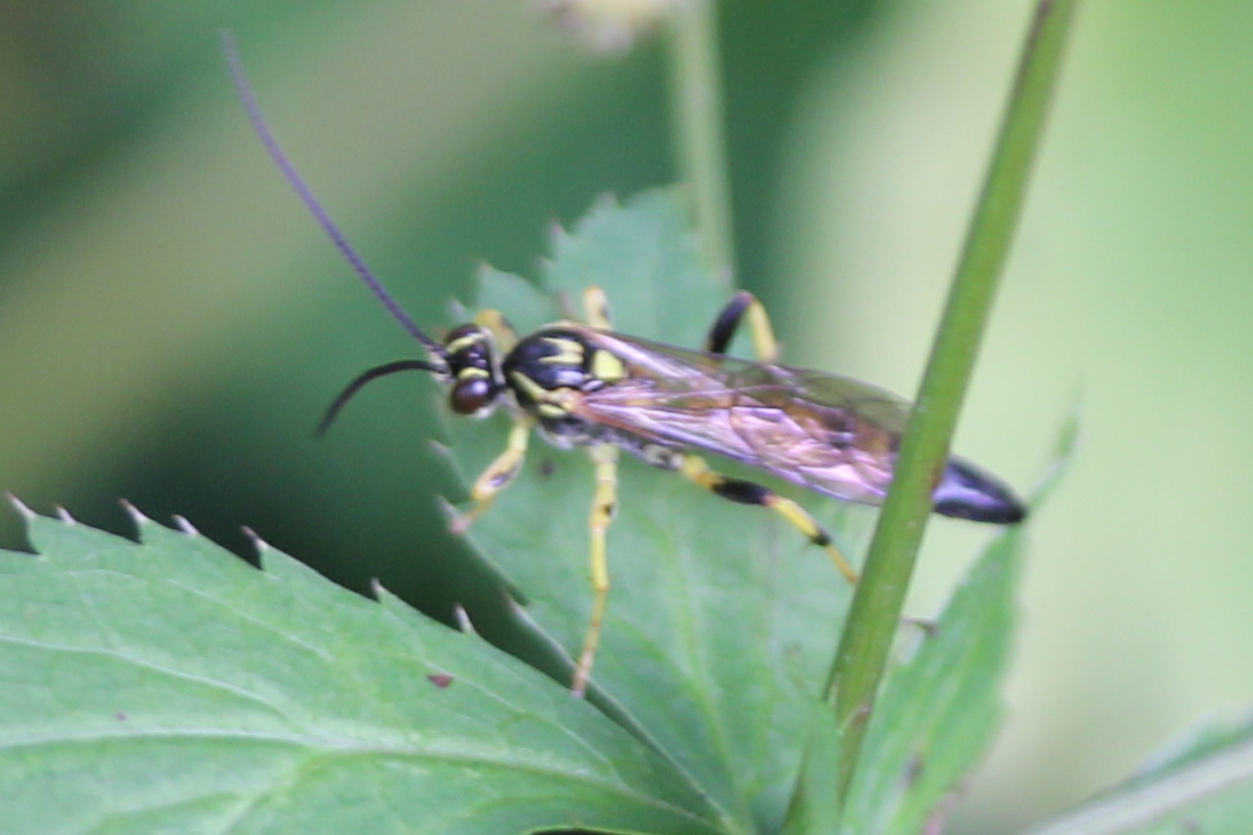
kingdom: Animalia
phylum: Arthropoda
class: Insecta
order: Hymenoptera
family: Ichneumonidae
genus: Ichneumon
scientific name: Ichneumon annulatorius
